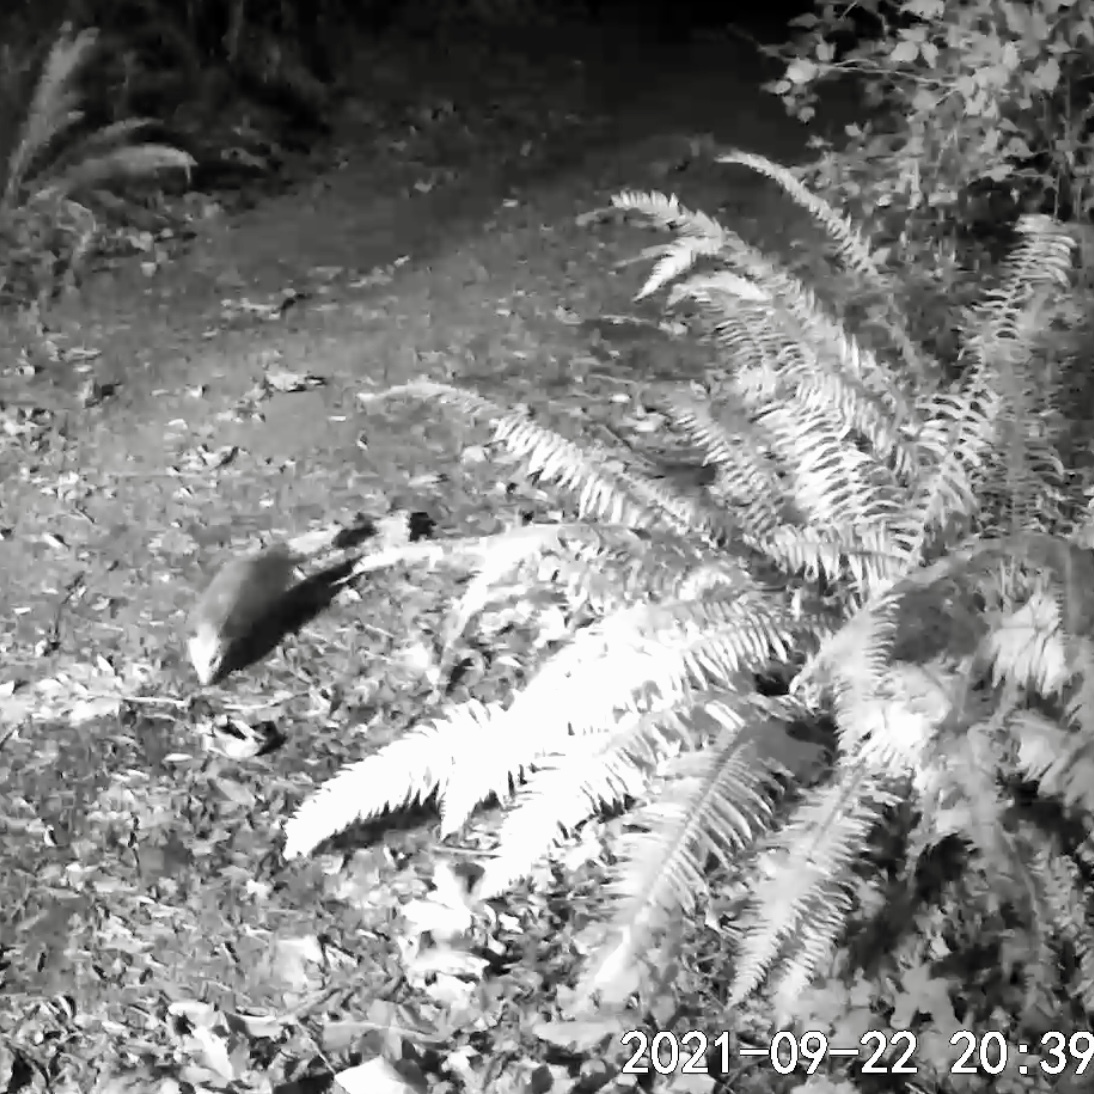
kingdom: Animalia
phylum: Chordata
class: Mammalia
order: Didelphimorphia
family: Didelphidae
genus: Didelphis
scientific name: Didelphis virginiana
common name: Virginia opossum
